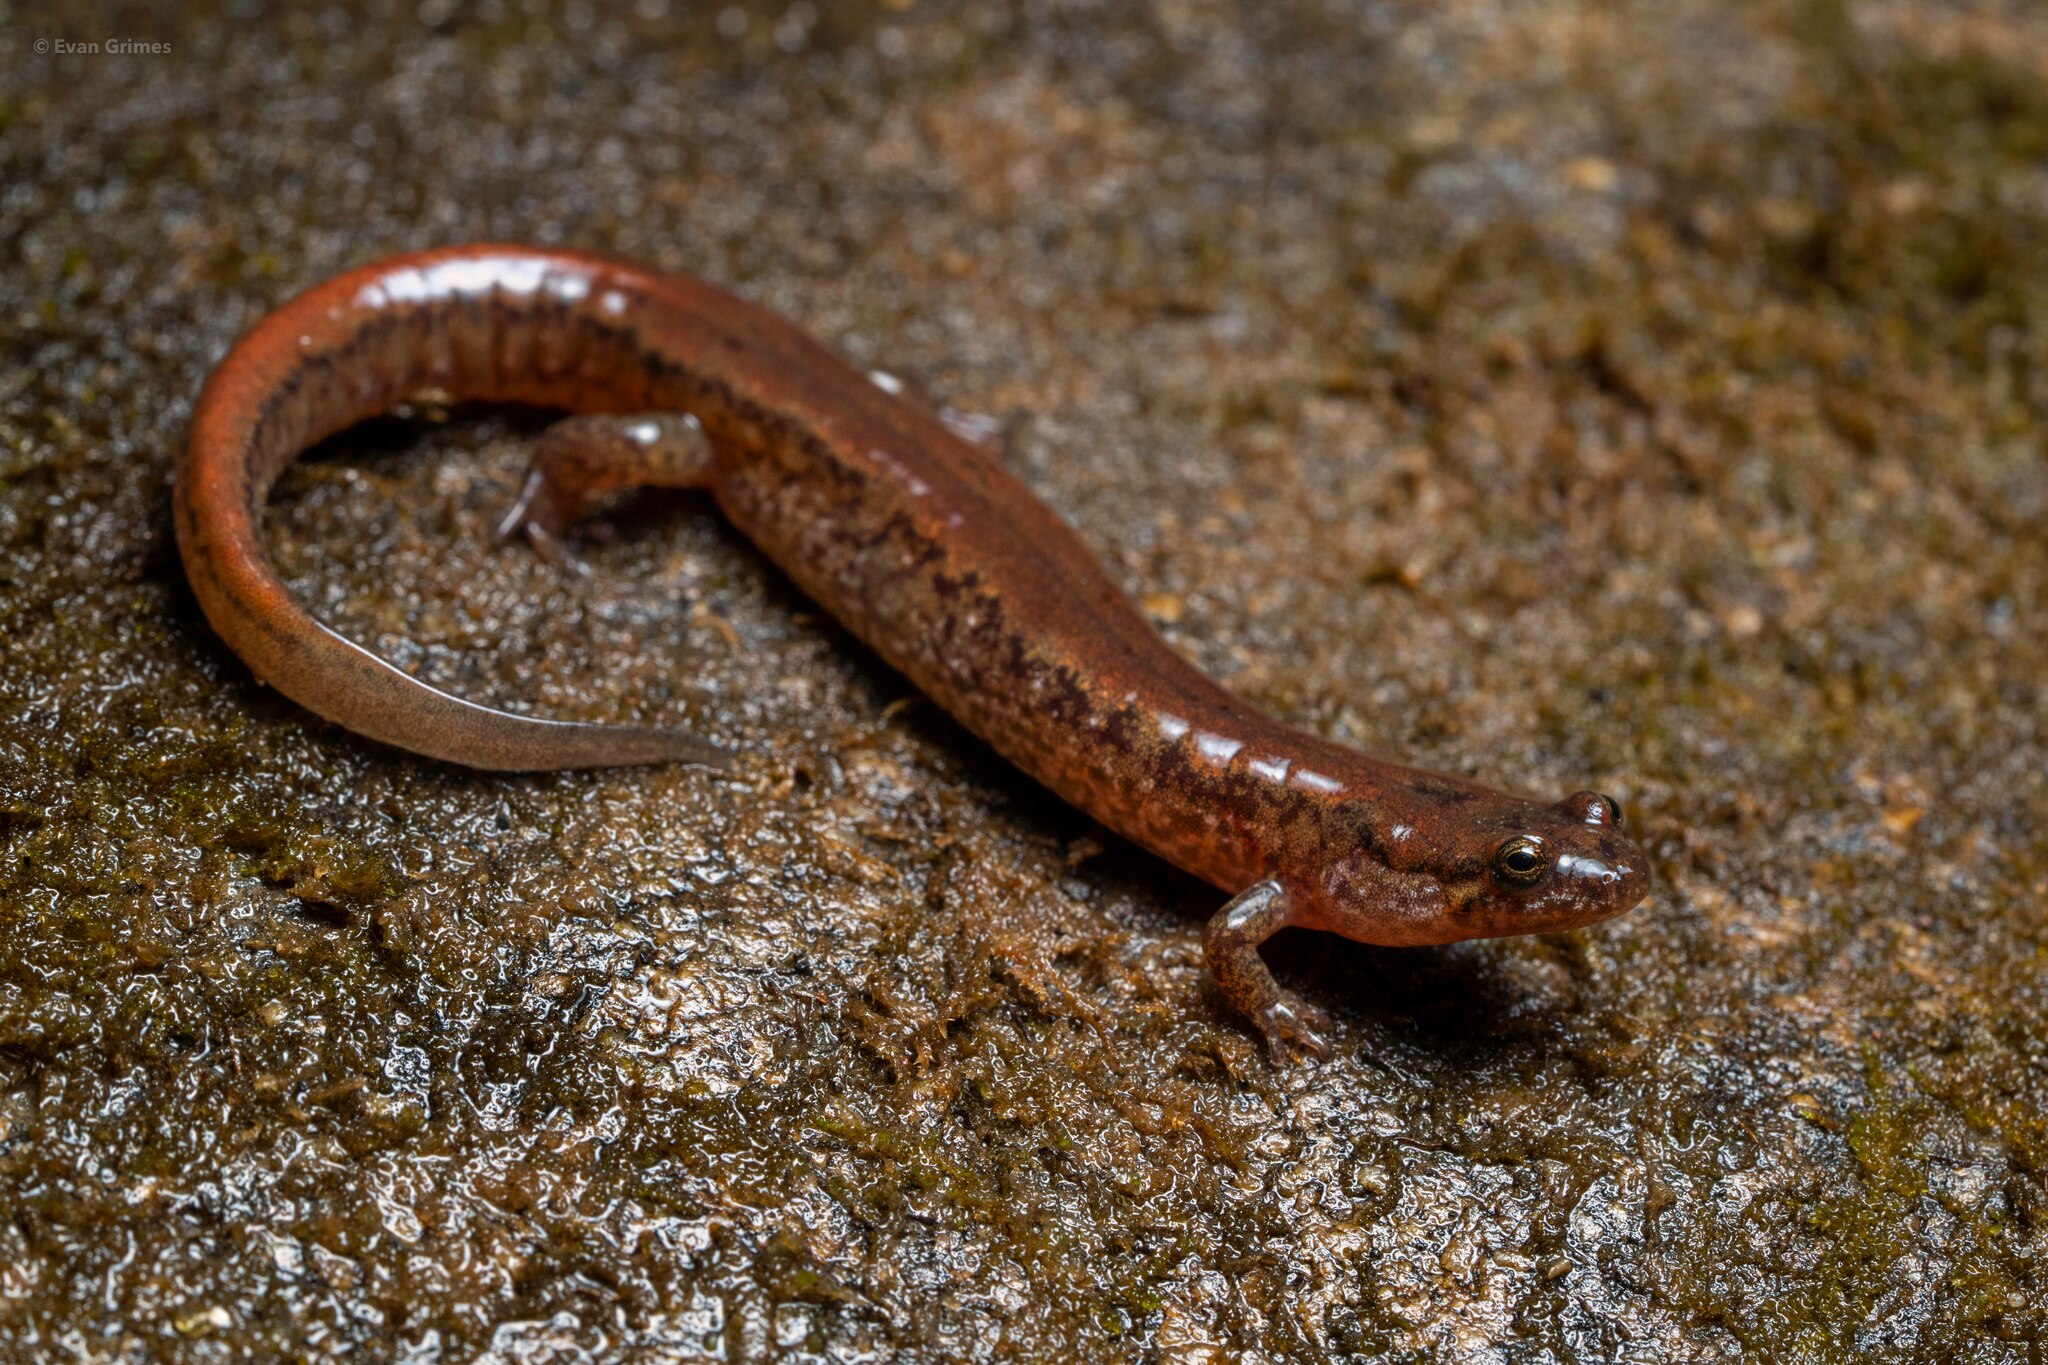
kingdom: Animalia
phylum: Chordata
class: Amphibia
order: Caudata
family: Plethodontidae
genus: Desmognathus
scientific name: Desmognathus fuscus
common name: Northern dusky salamander
